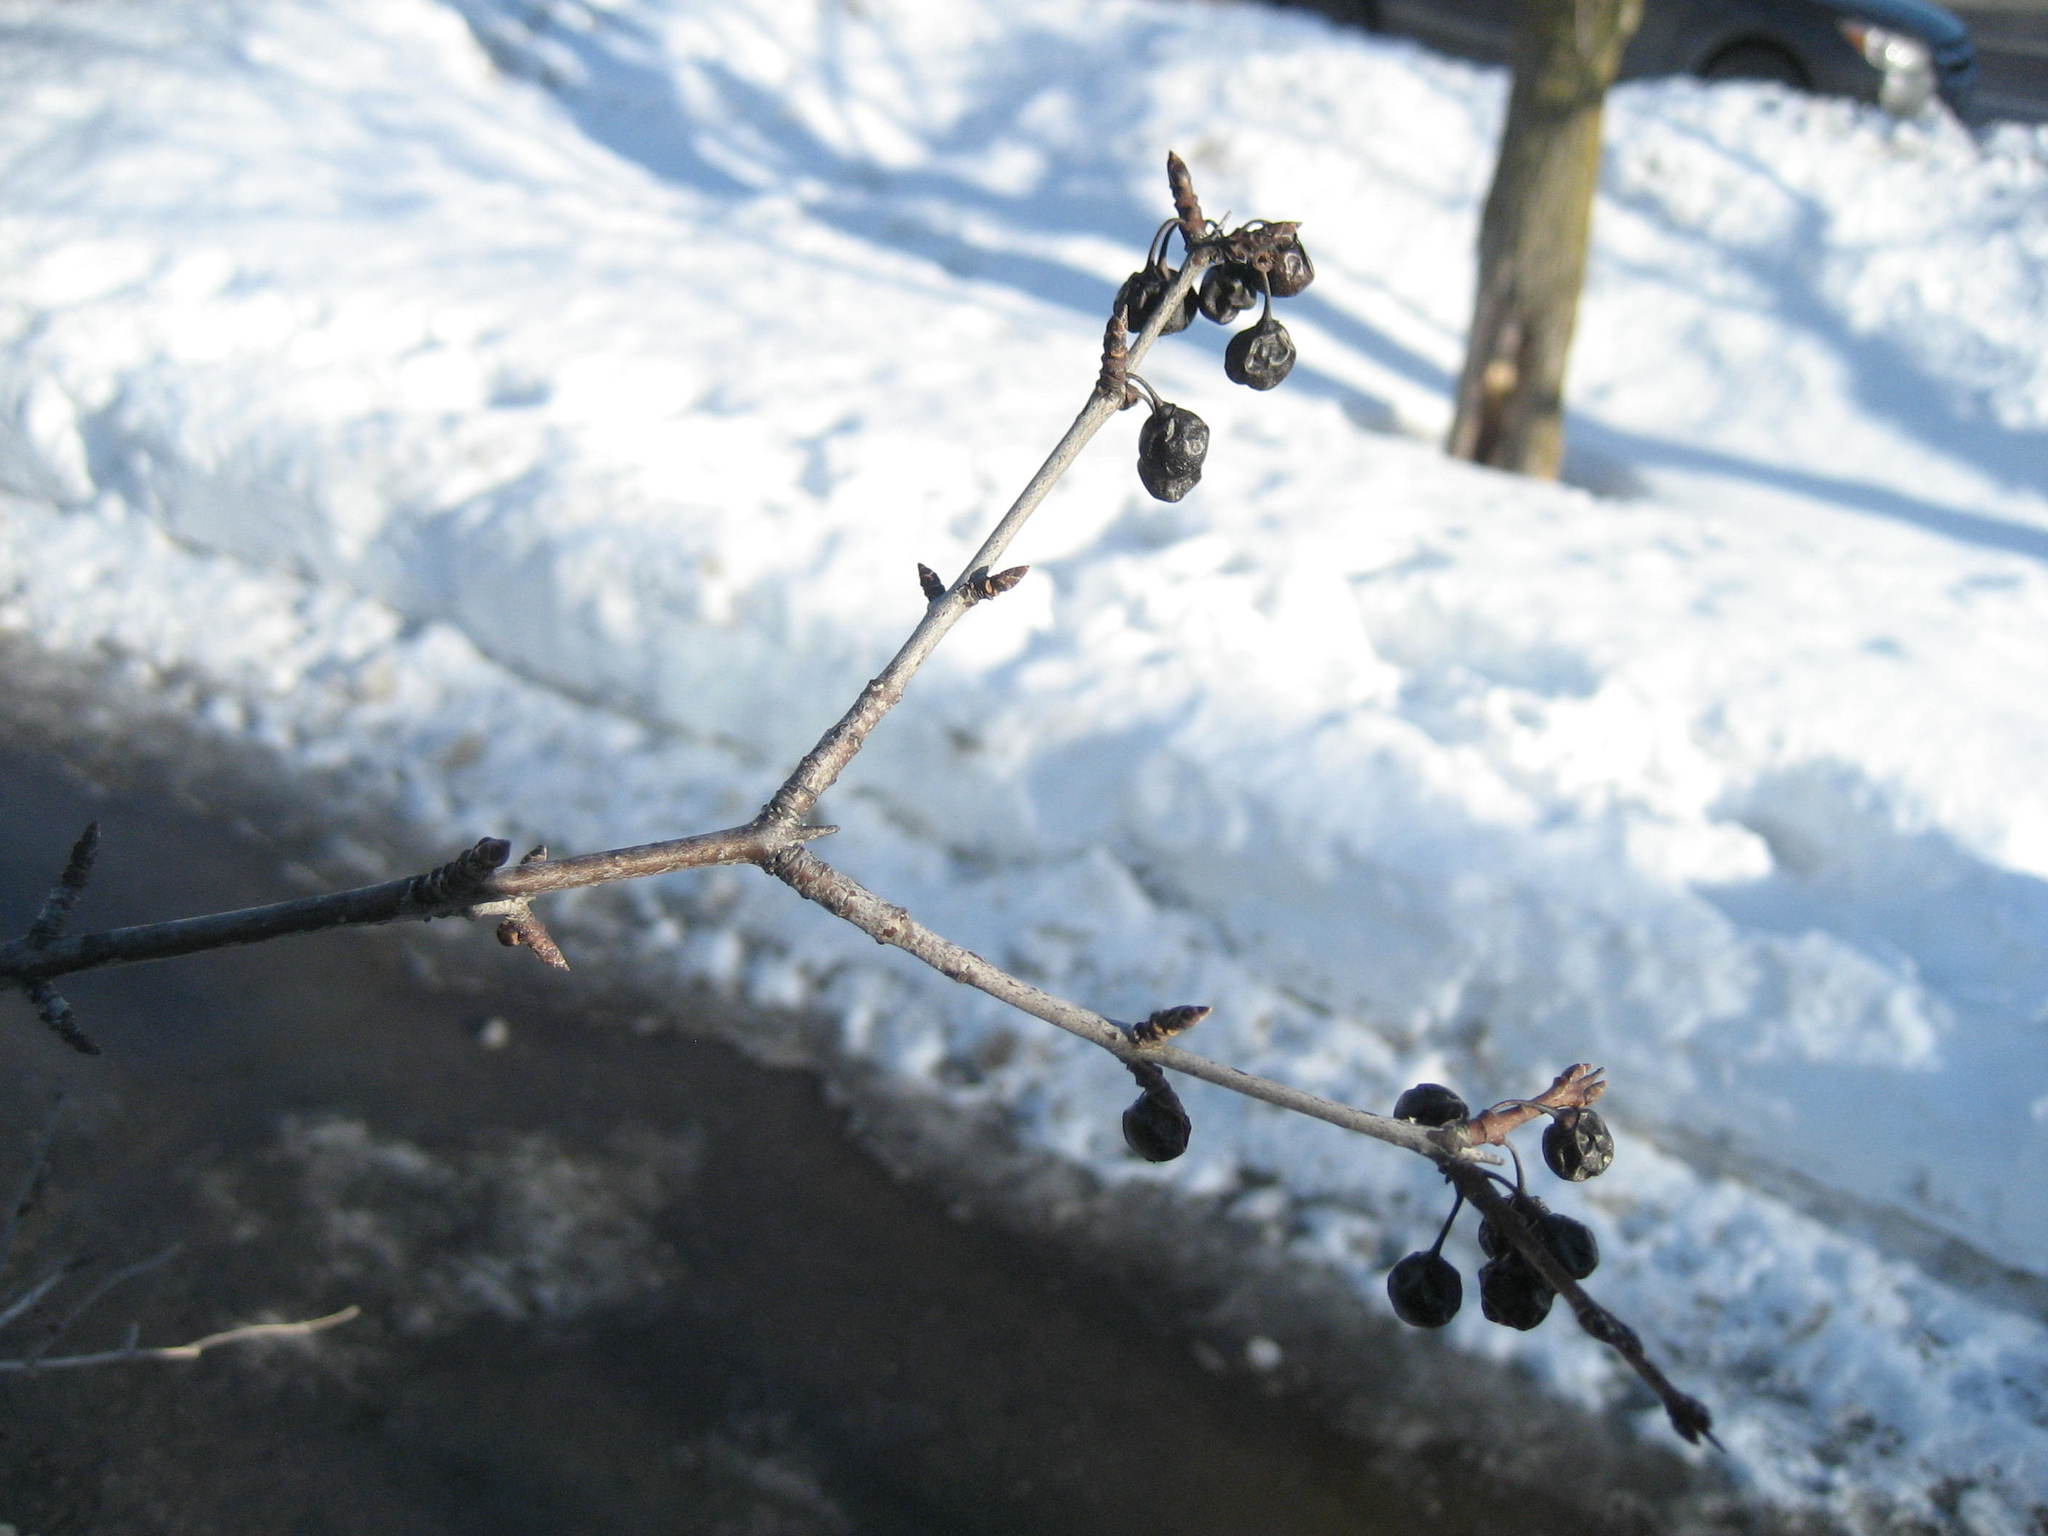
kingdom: Plantae
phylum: Tracheophyta
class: Magnoliopsida
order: Rosales
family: Rhamnaceae
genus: Rhamnus
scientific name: Rhamnus cathartica
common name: Common buckthorn
